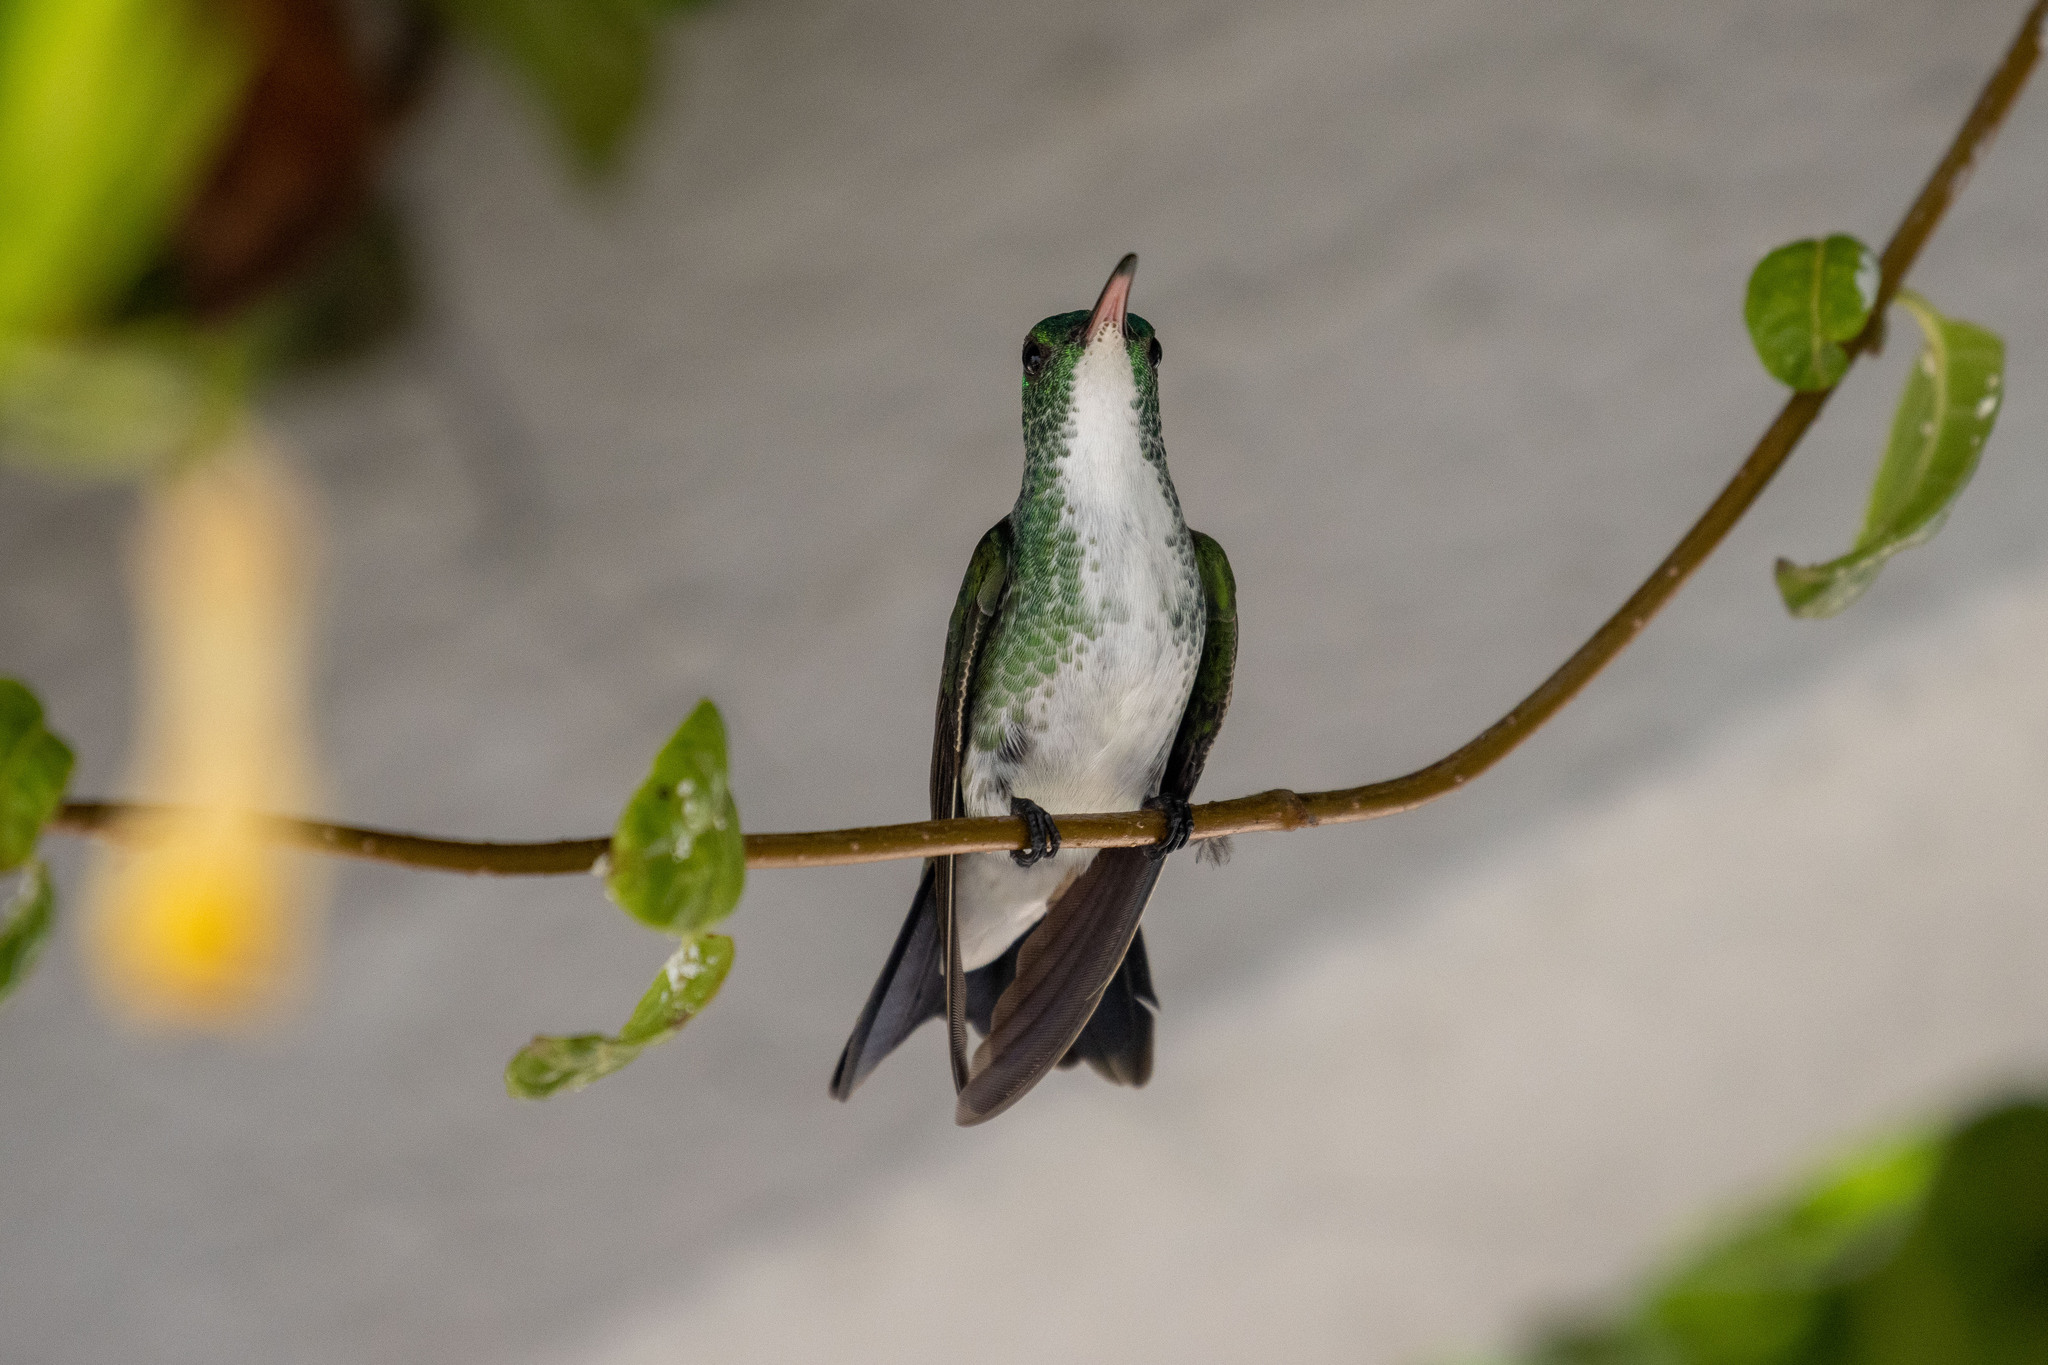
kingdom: Animalia
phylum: Chordata
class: Aves
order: Apodiformes
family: Trochilidae
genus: Chrysuronia
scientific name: Chrysuronia leucogaster
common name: Plain-bellied emerald
